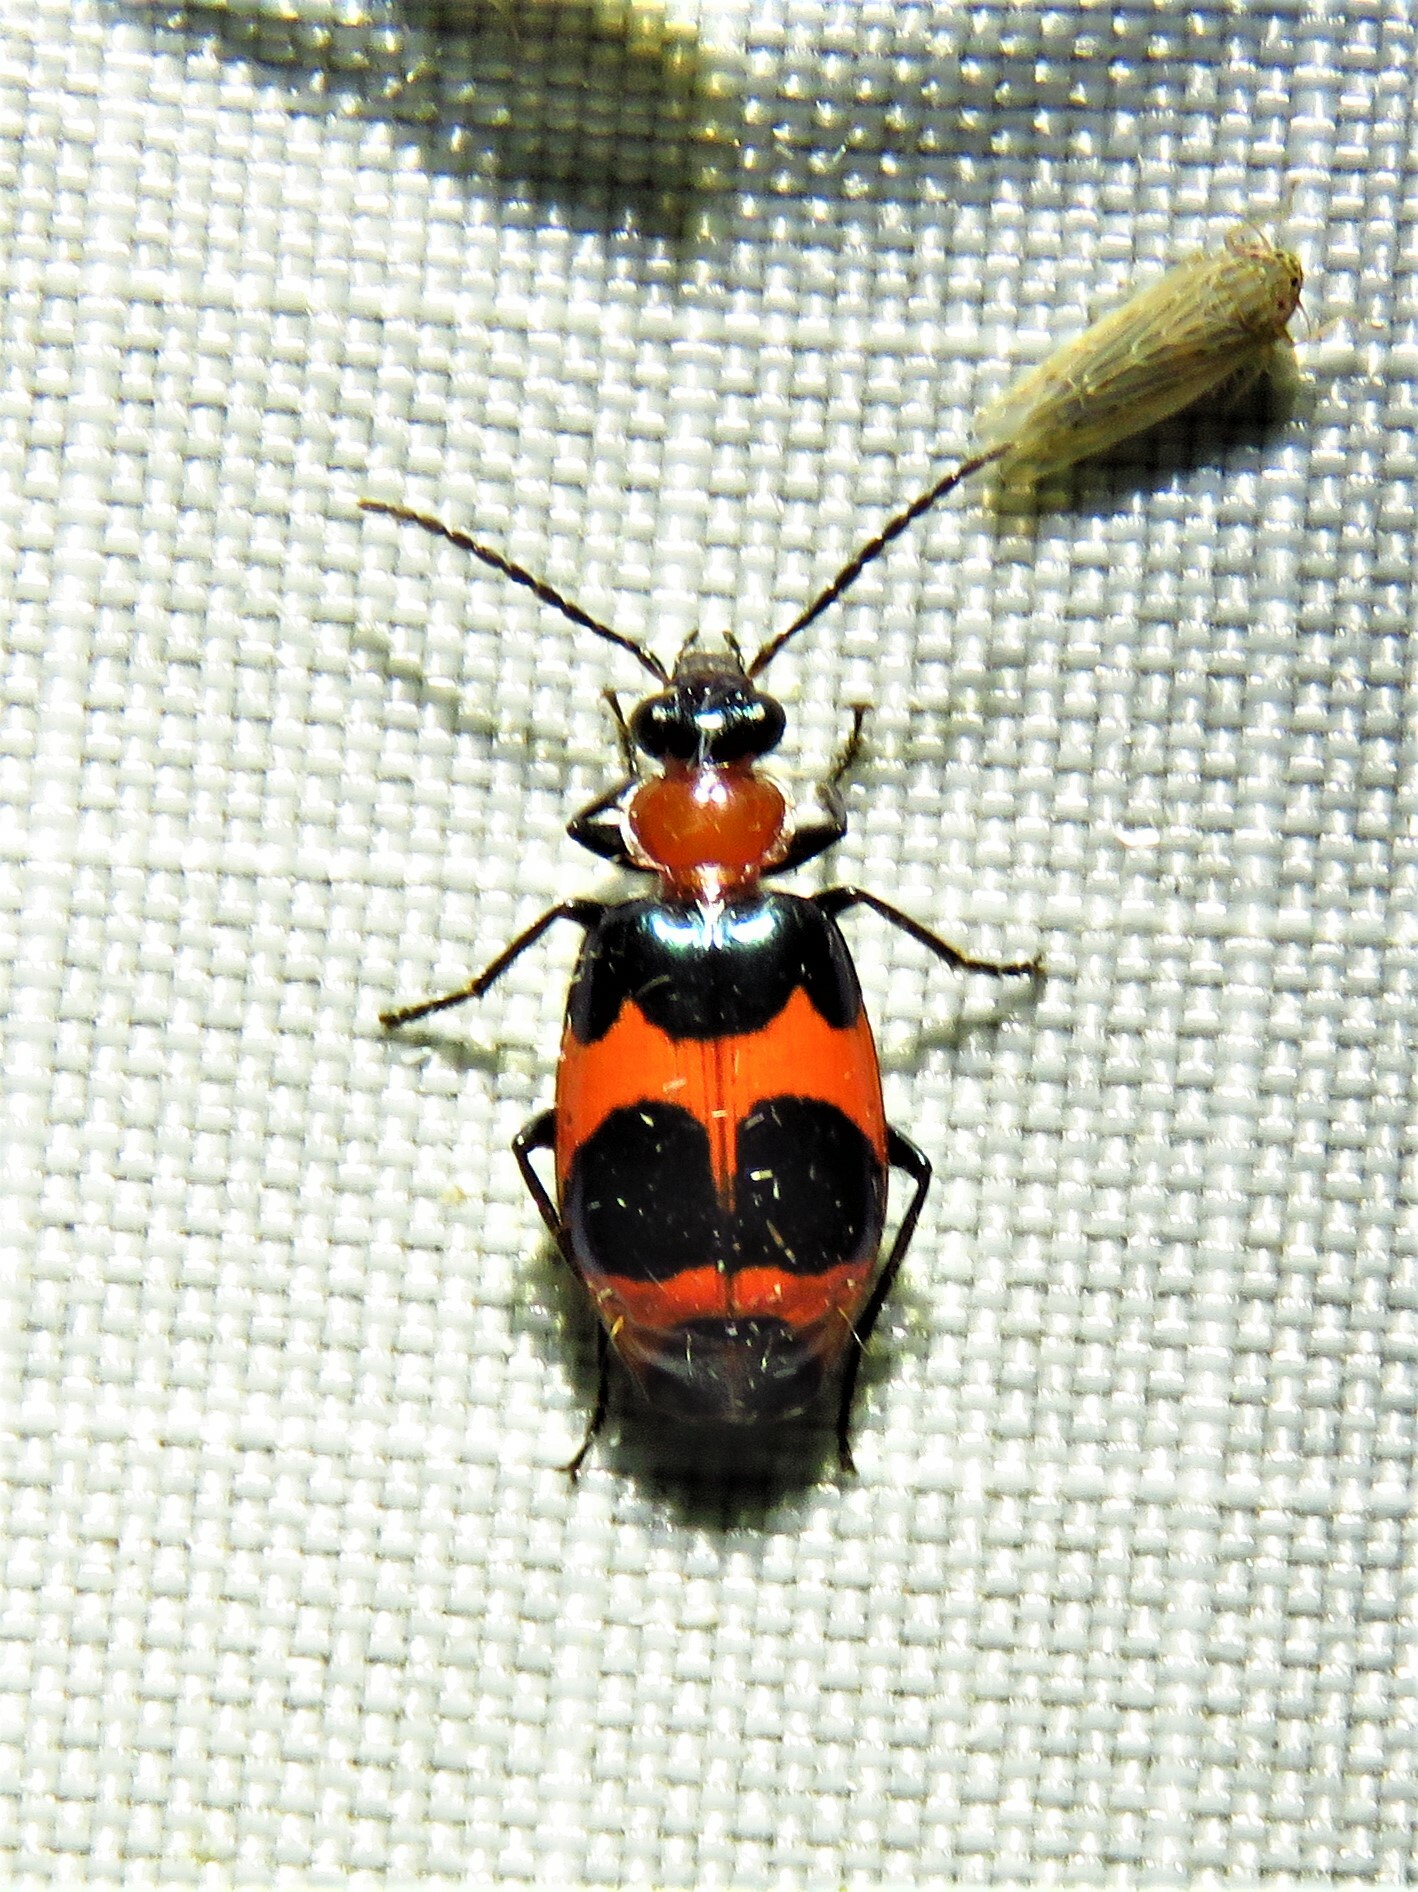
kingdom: Animalia
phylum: Arthropoda
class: Insecta
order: Coleoptera
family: Carabidae
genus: Lebia
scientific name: Lebia bitaeniata
